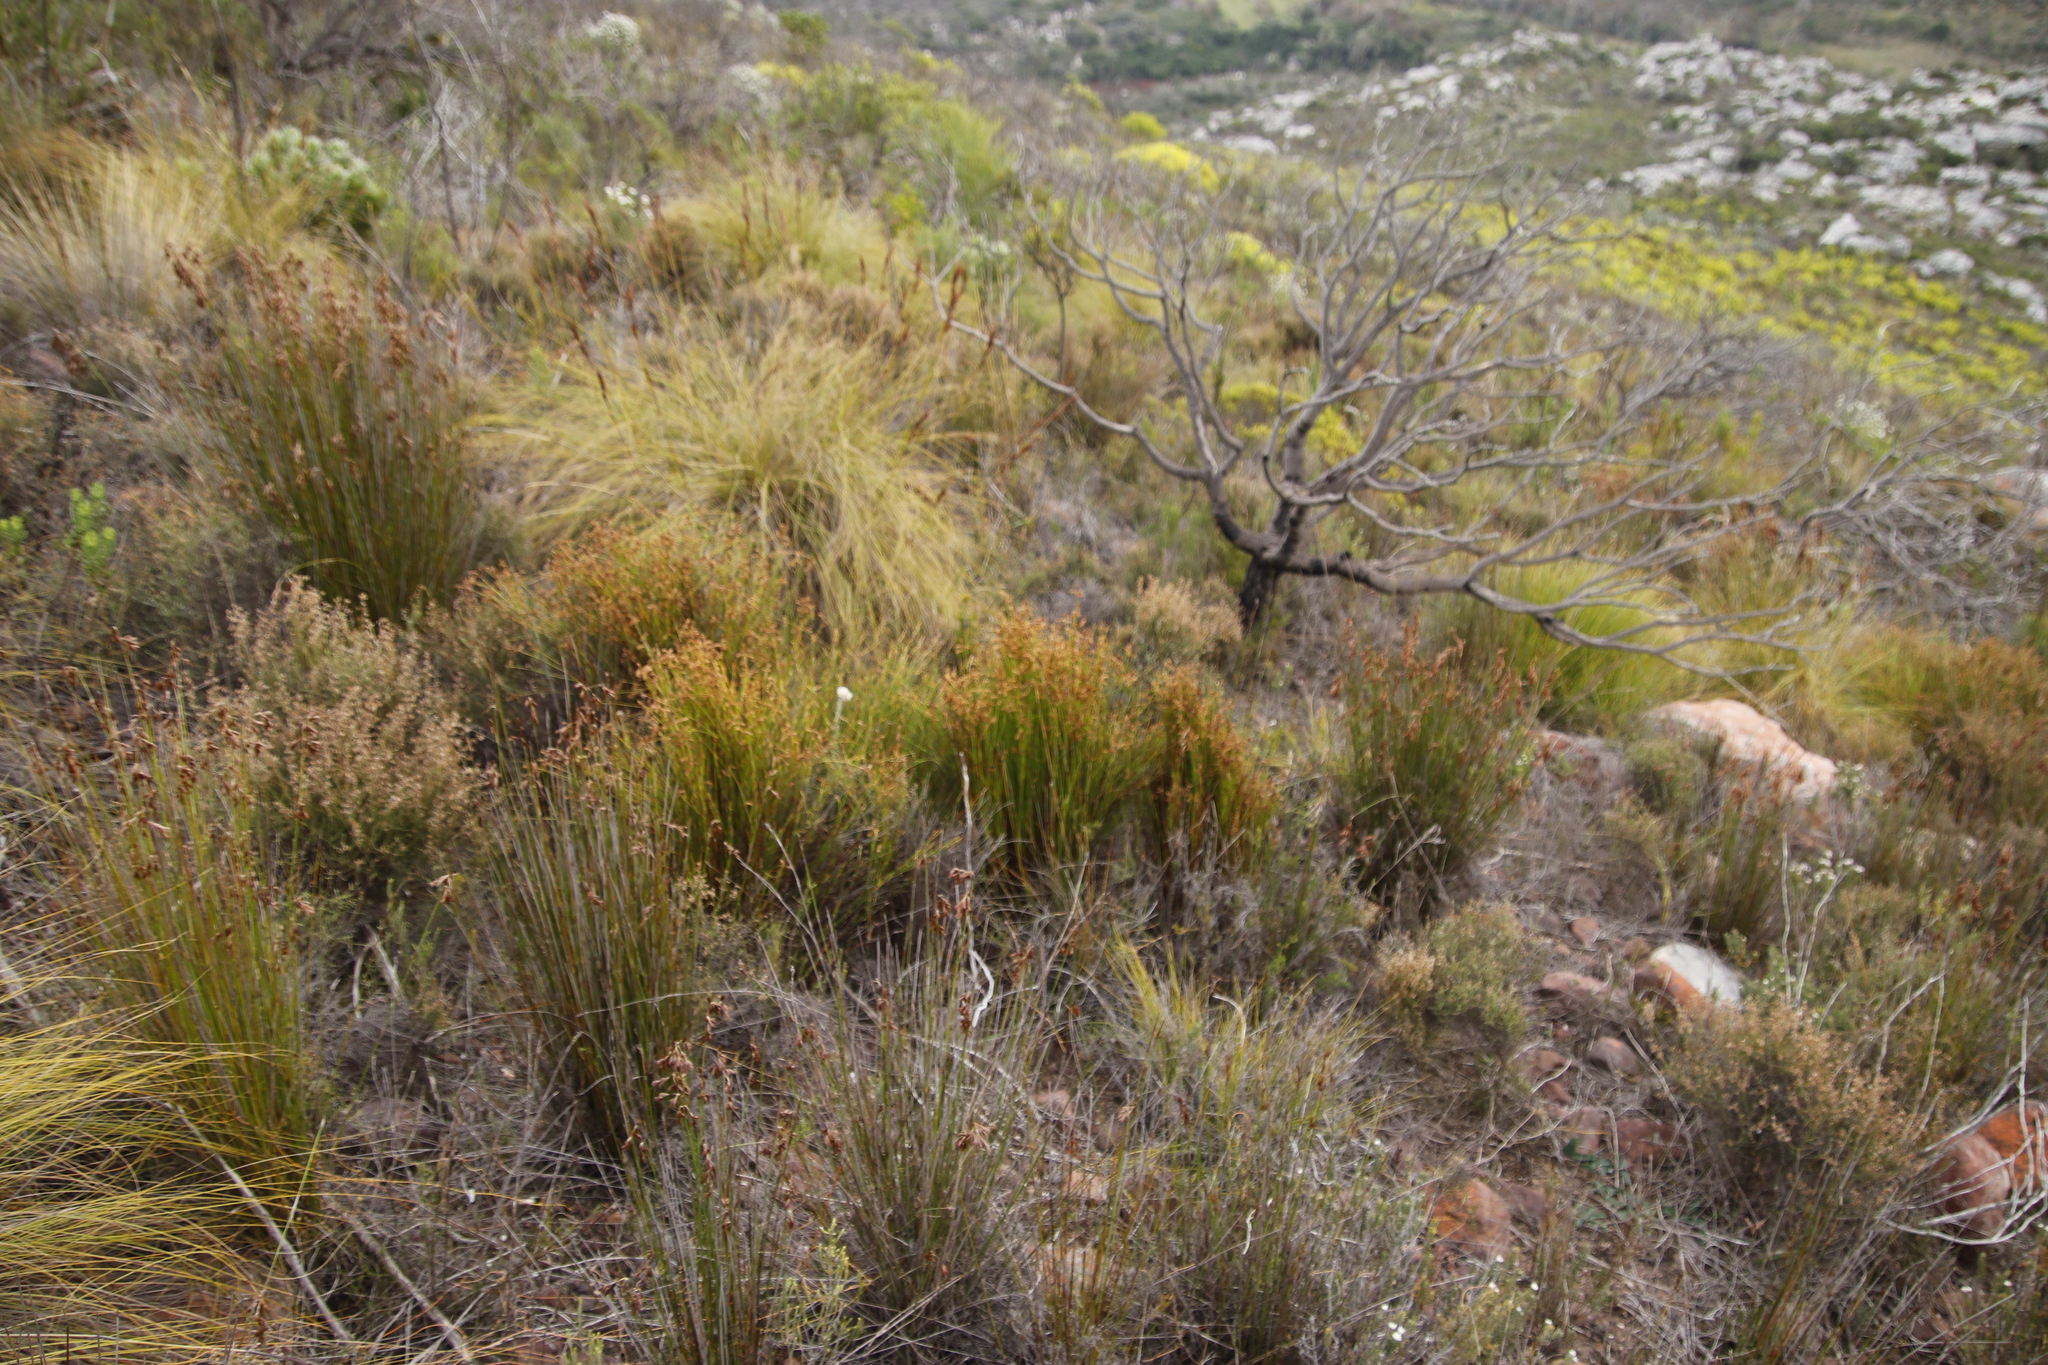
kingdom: Plantae
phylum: Tracheophyta
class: Liliopsida
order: Poales
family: Restionaceae
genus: Mastersiella
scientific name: Mastersiella digitata
